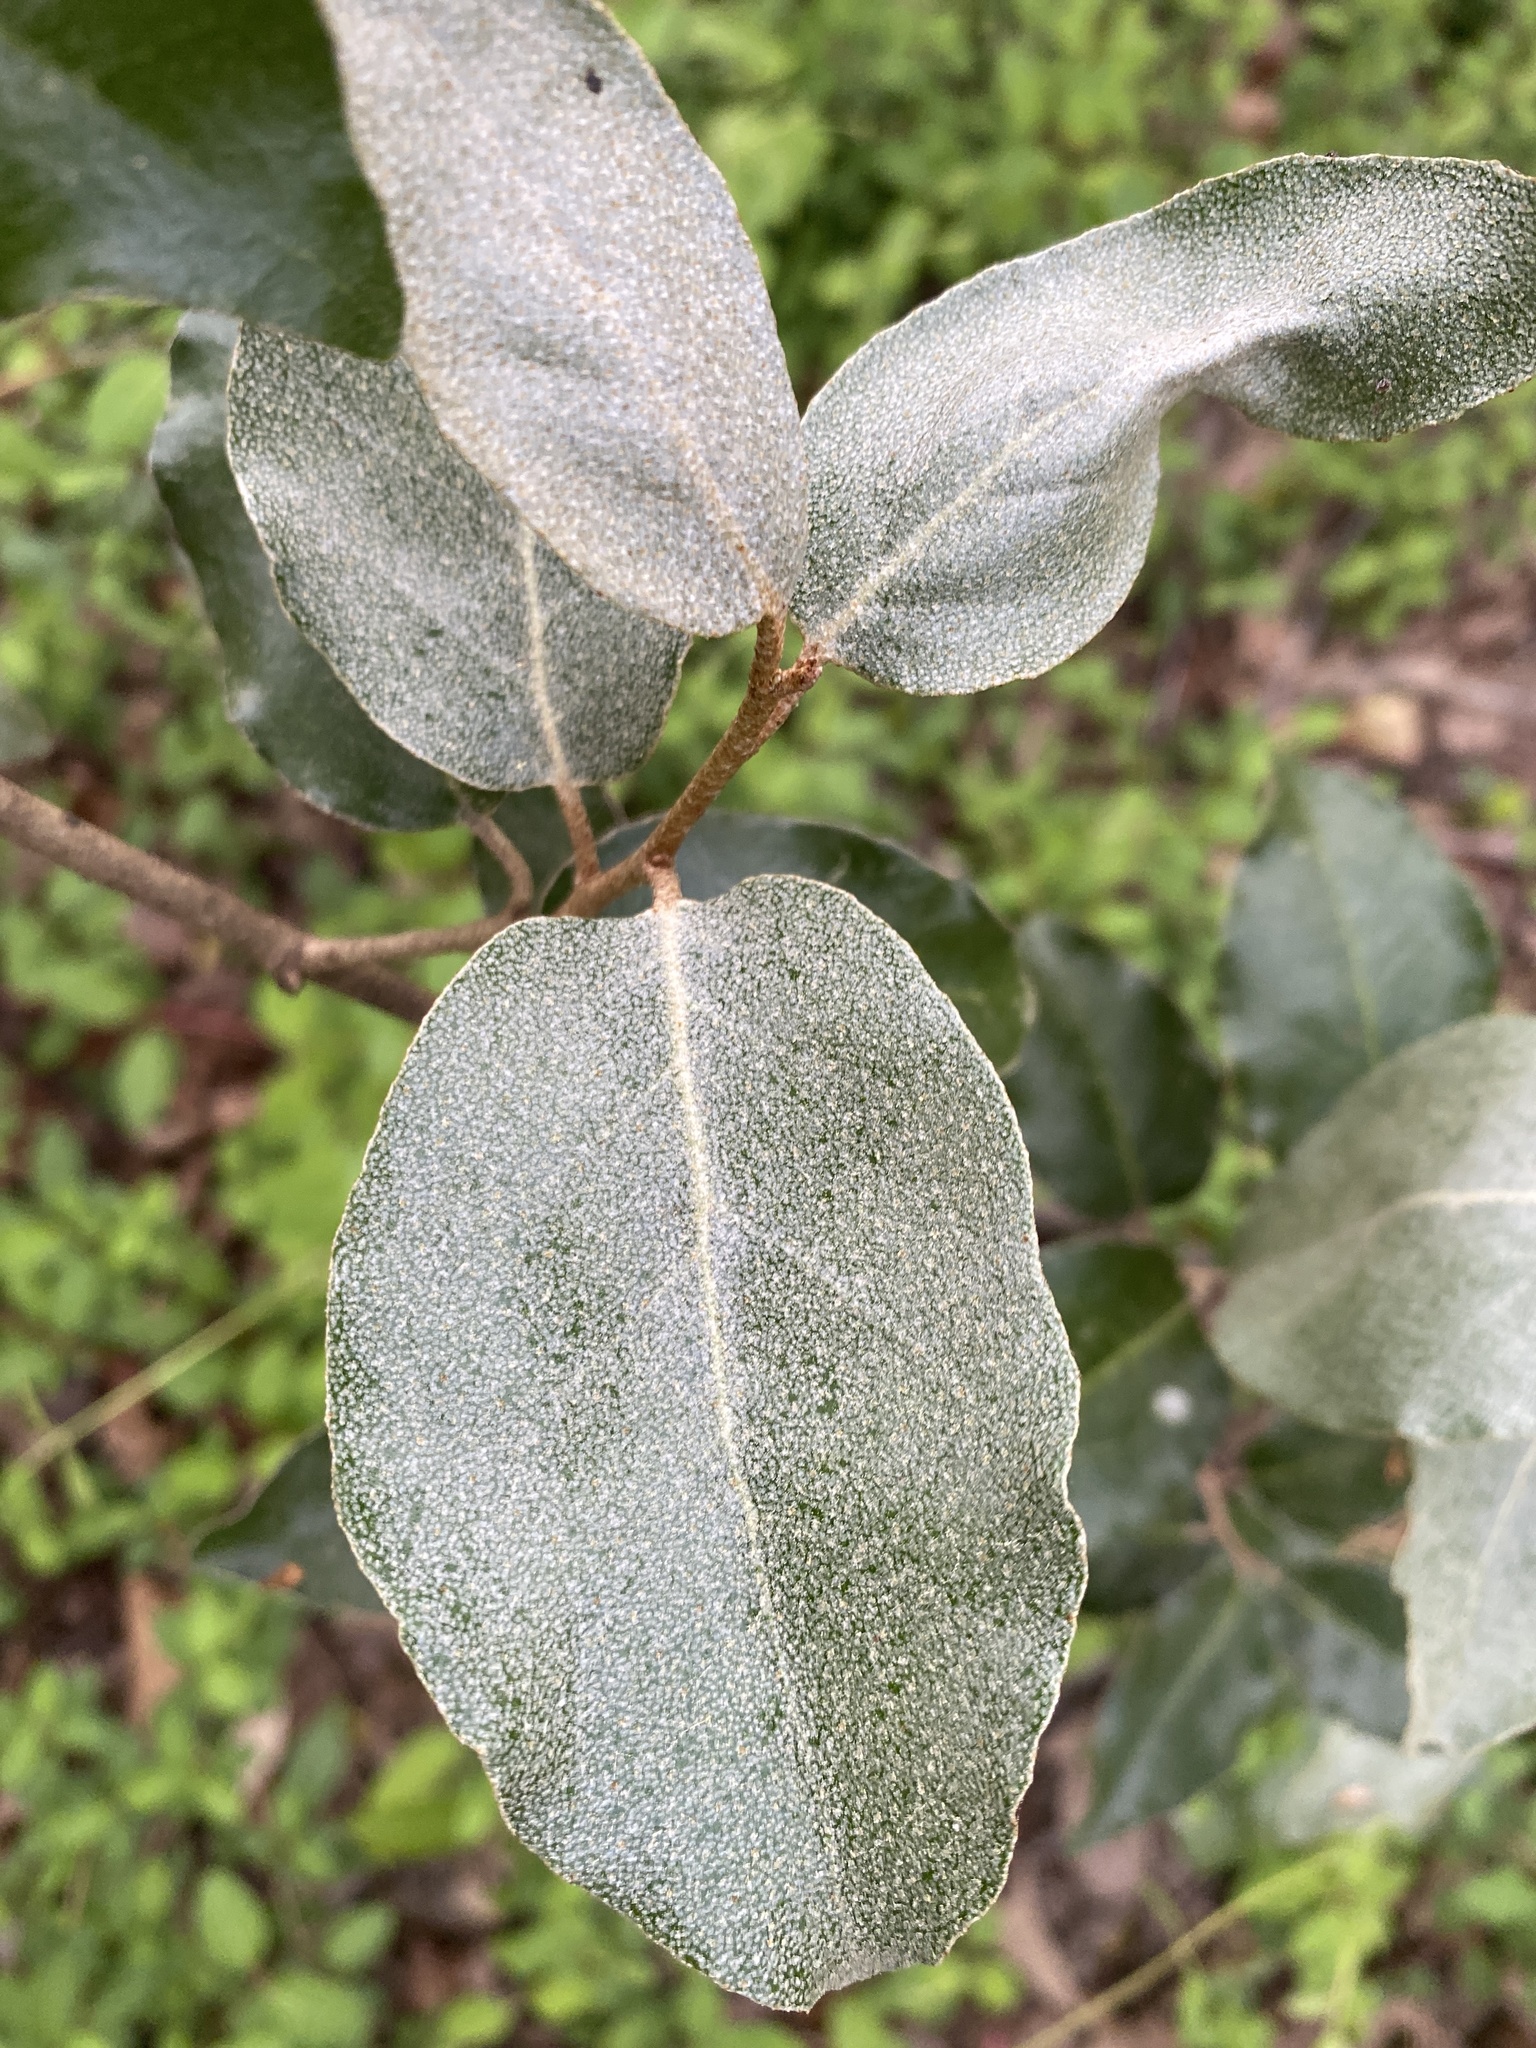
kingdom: Plantae
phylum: Tracheophyta
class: Magnoliopsida
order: Rosales
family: Elaeagnaceae
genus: Elaeagnus
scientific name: Elaeagnus pungens
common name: Spiny oleaster
